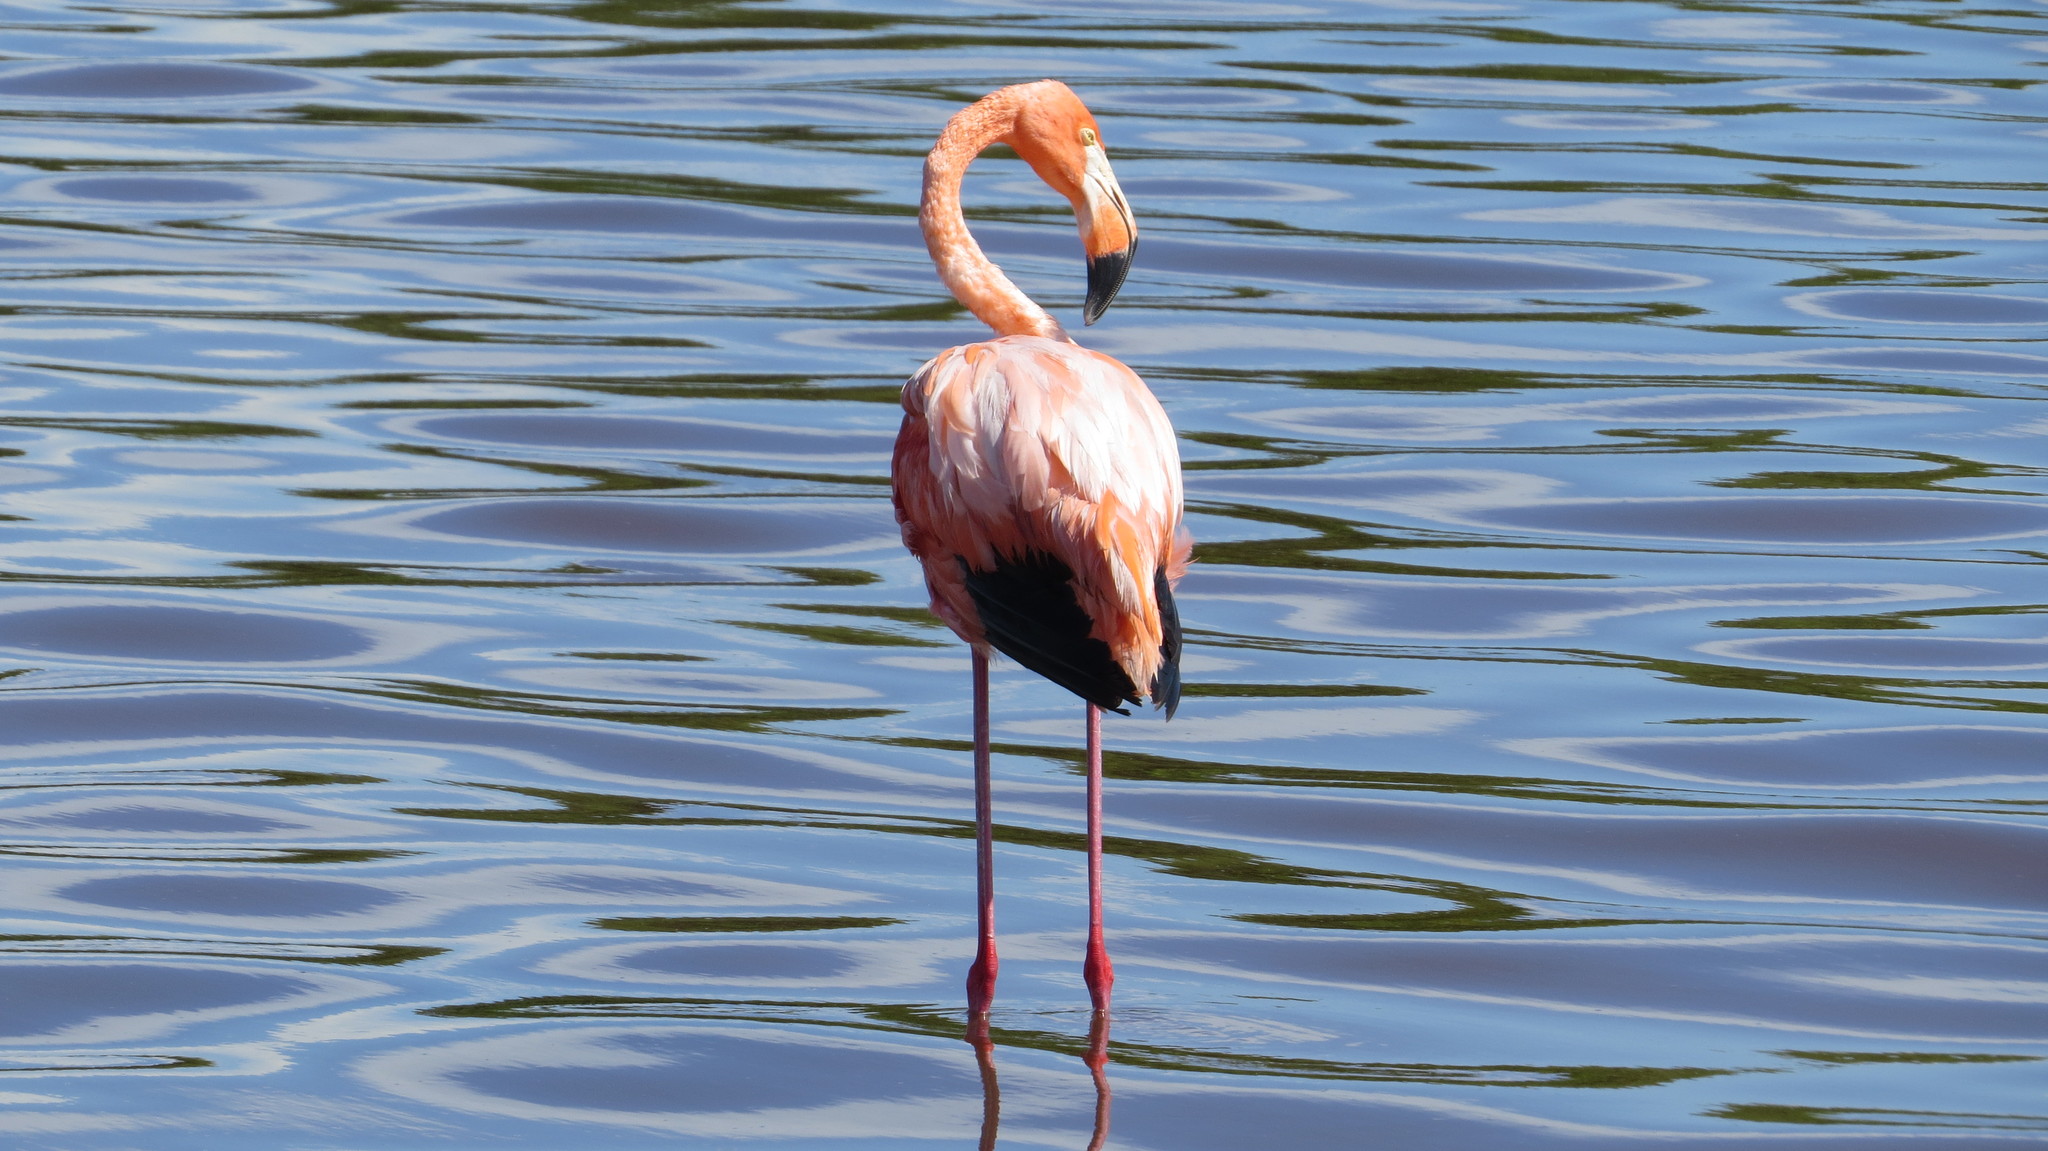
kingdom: Animalia
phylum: Chordata
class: Aves
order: Phoenicopteriformes
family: Phoenicopteridae
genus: Phoenicopterus
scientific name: Phoenicopterus ruber
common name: American flamingo
